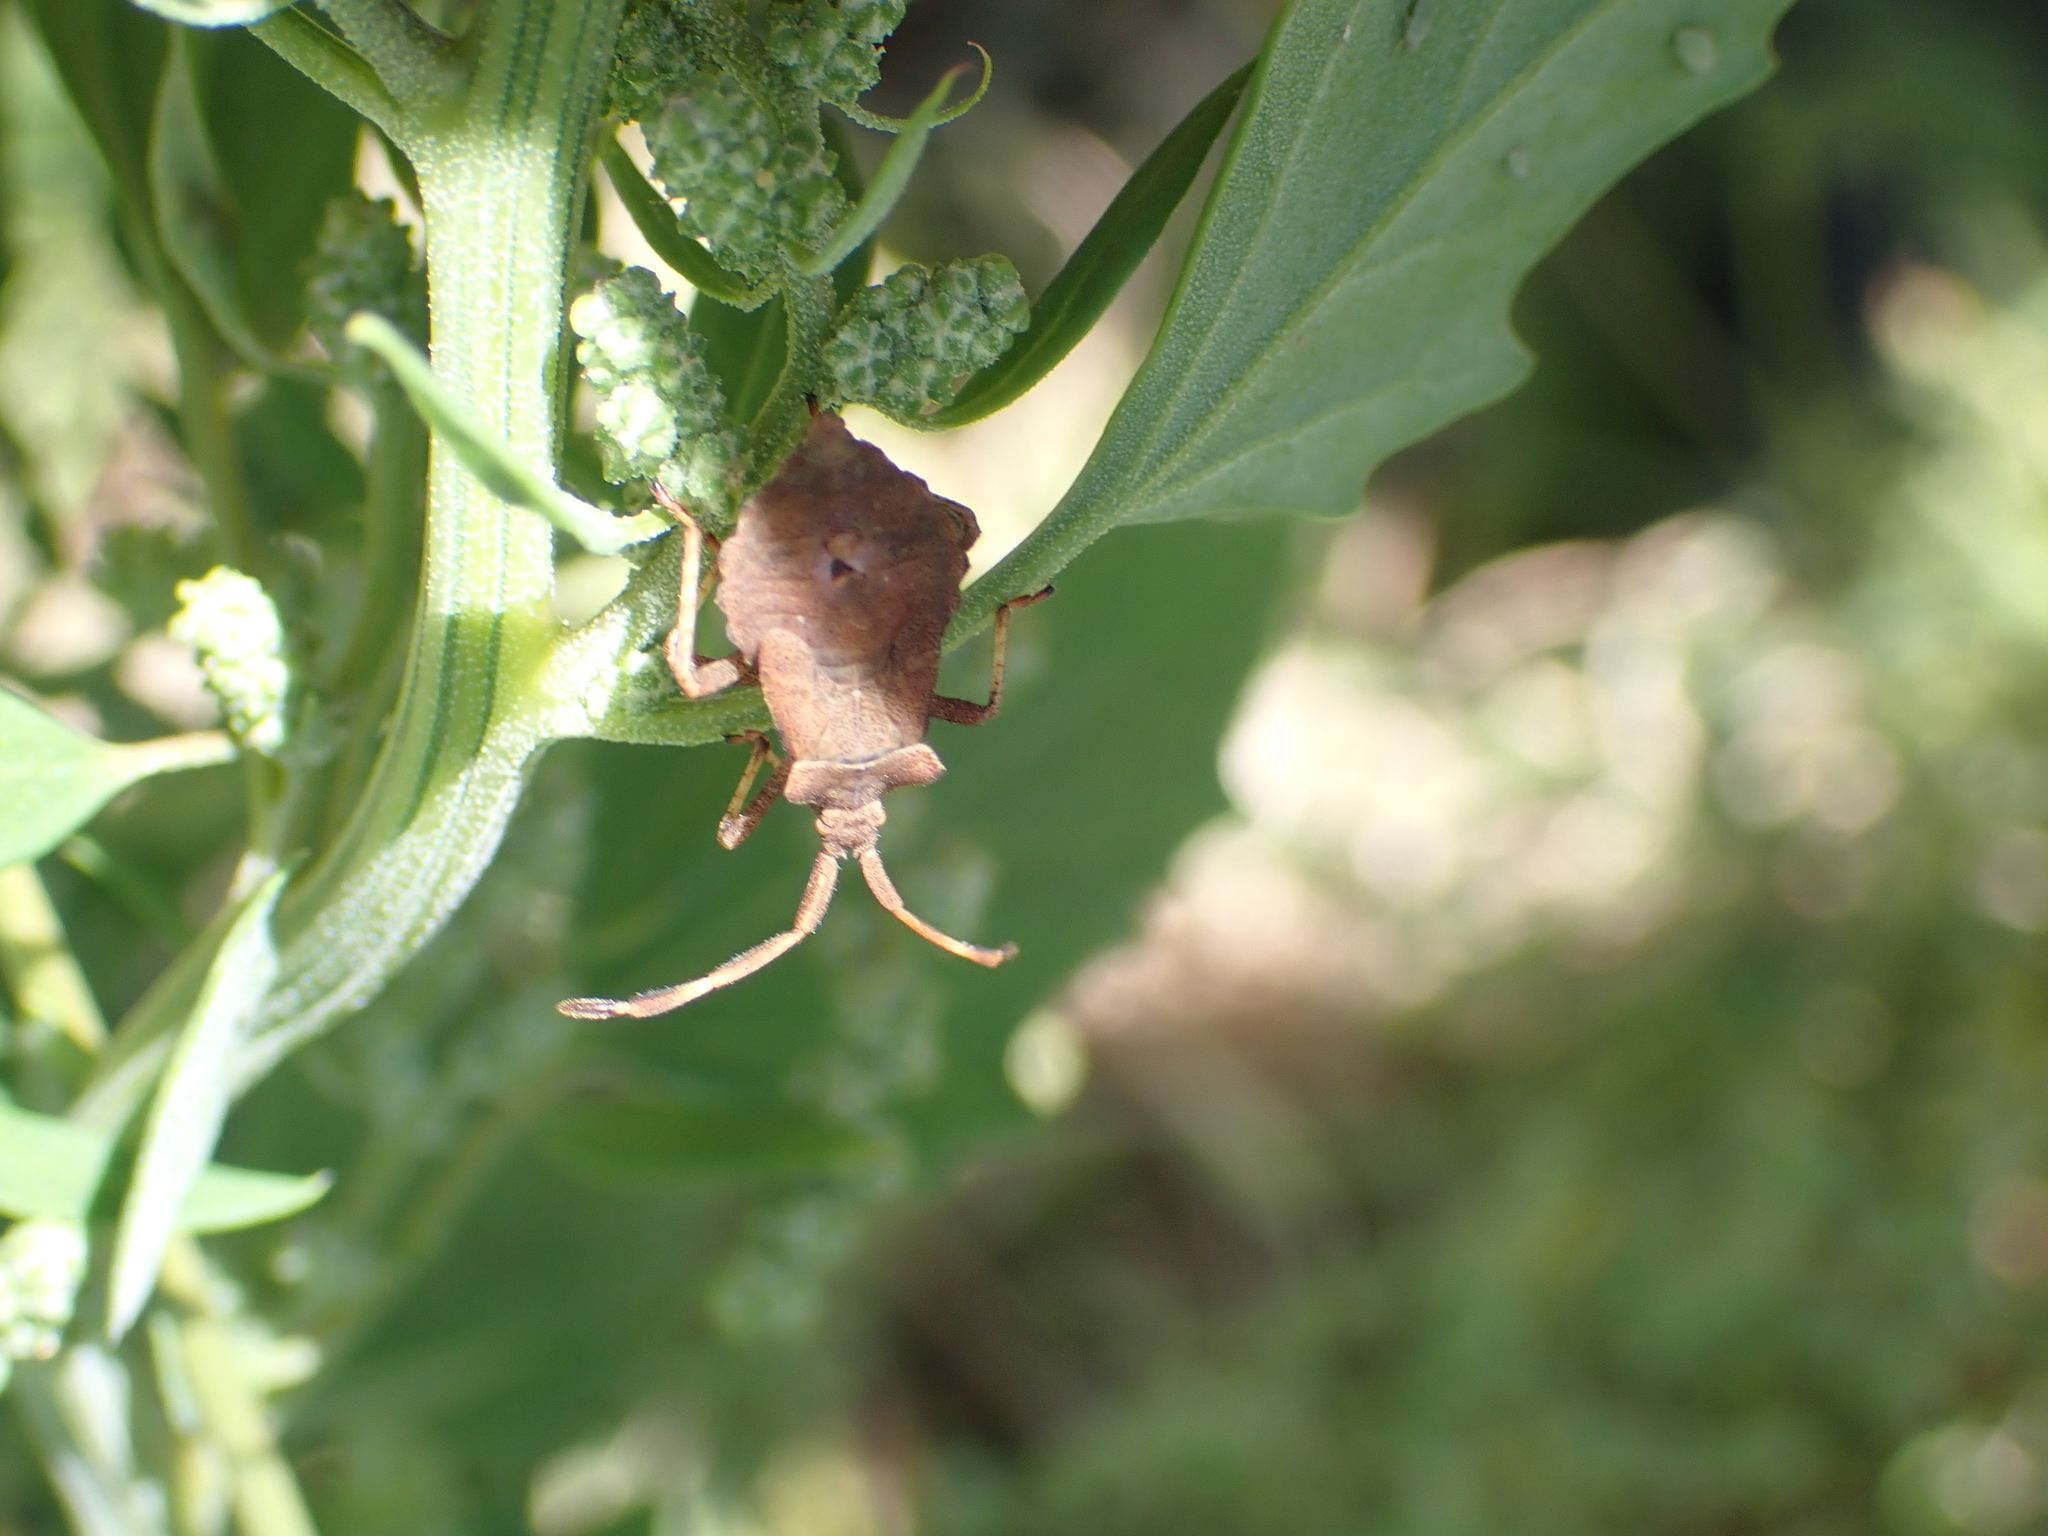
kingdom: Animalia
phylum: Arthropoda
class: Insecta
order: Hemiptera
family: Coreidae
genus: Coreus
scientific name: Coreus marginatus
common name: Dock bug
